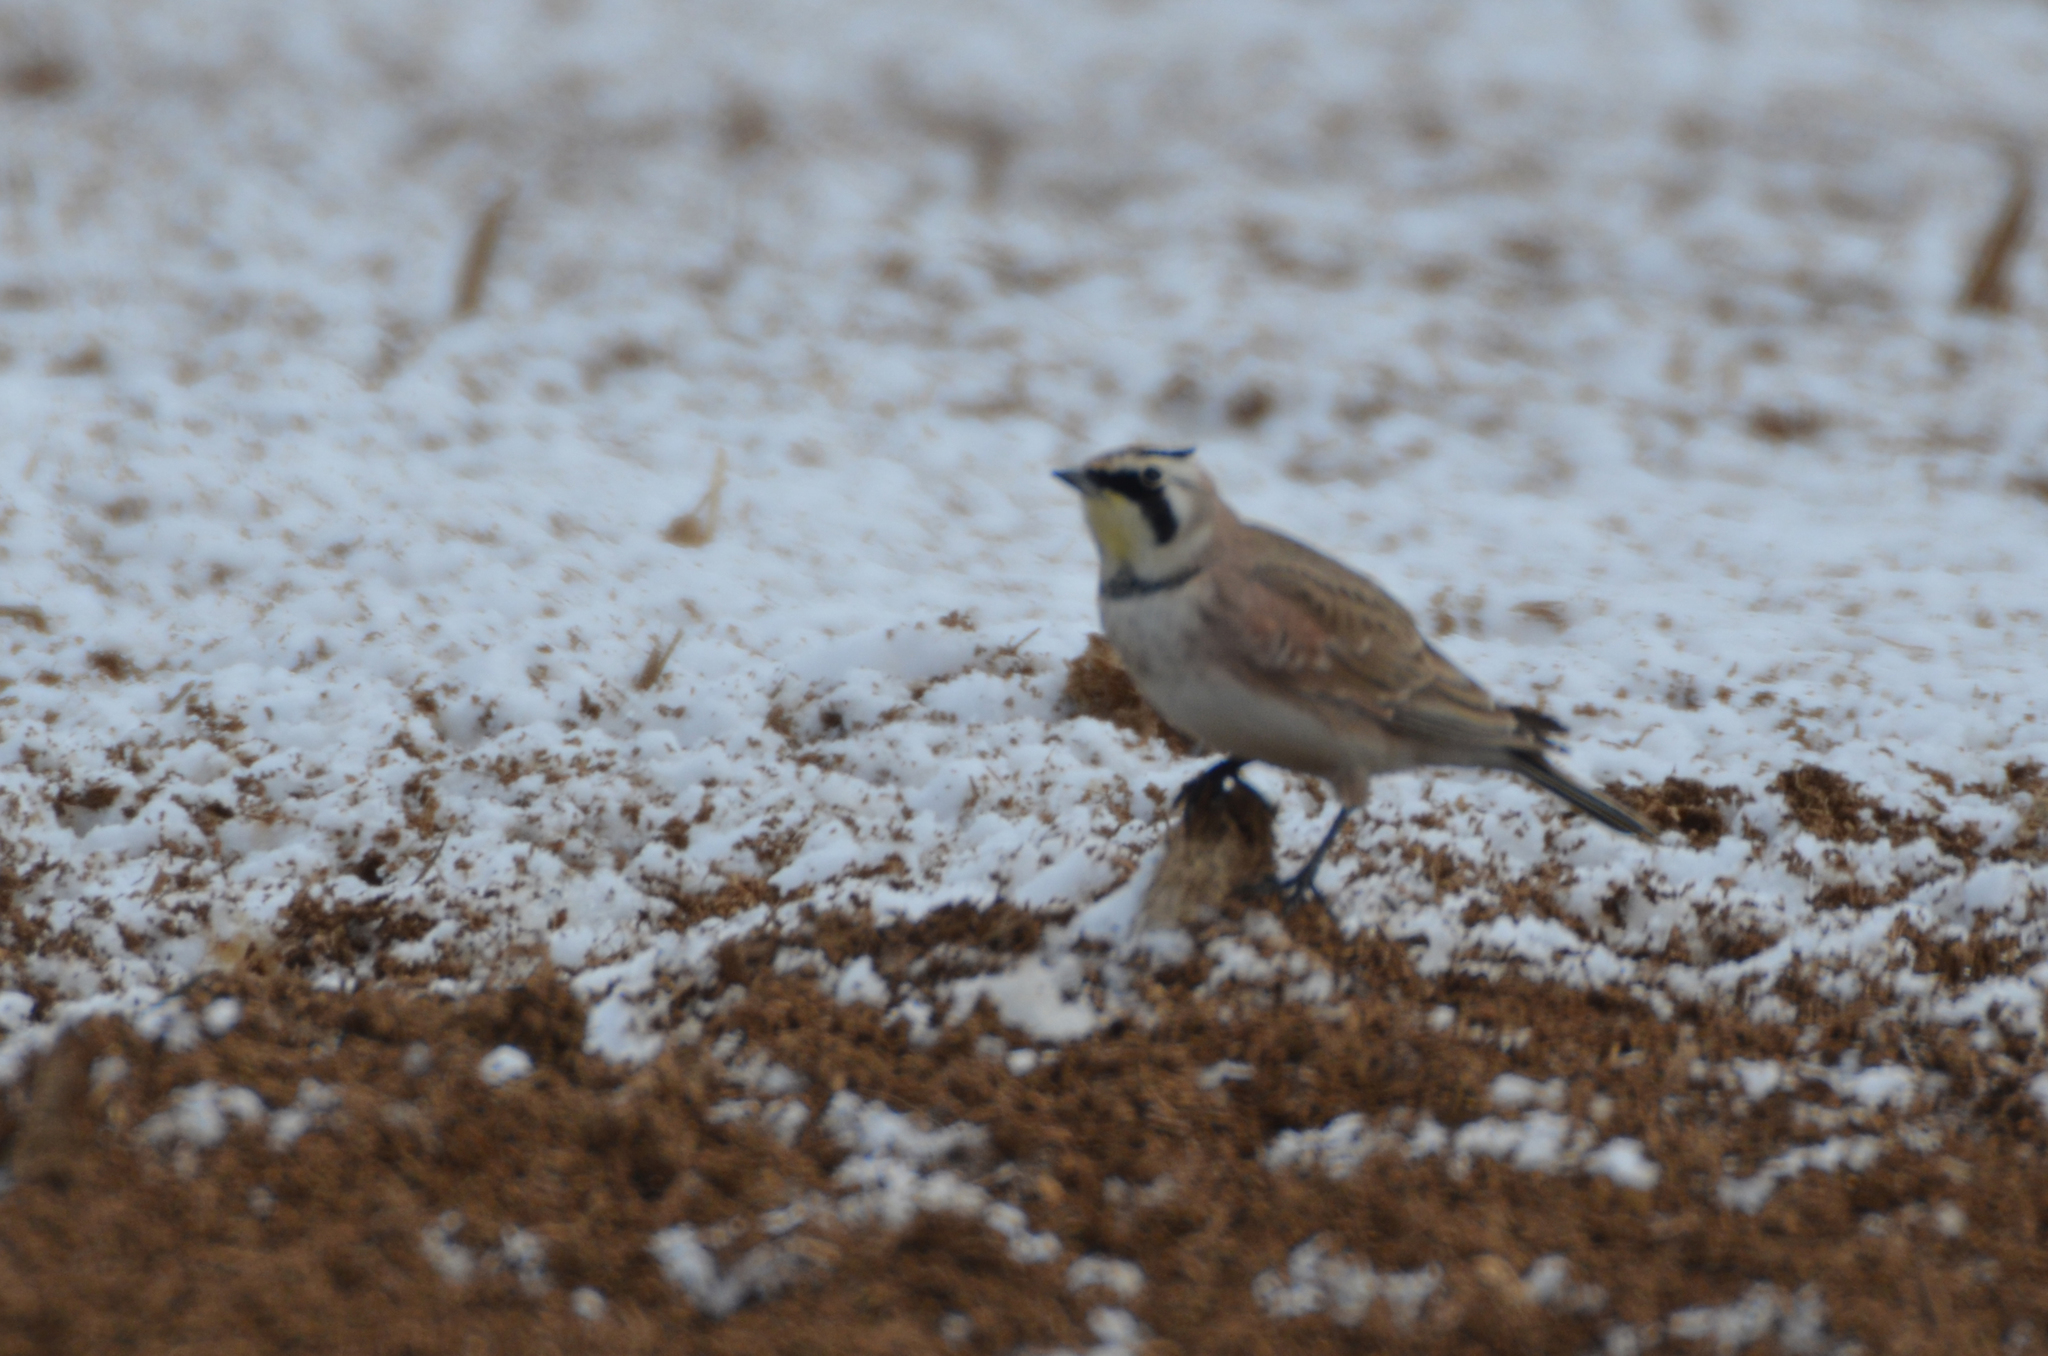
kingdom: Animalia
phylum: Chordata
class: Aves
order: Passeriformes
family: Alaudidae
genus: Eremophila
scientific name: Eremophila alpestris
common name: Horned lark
